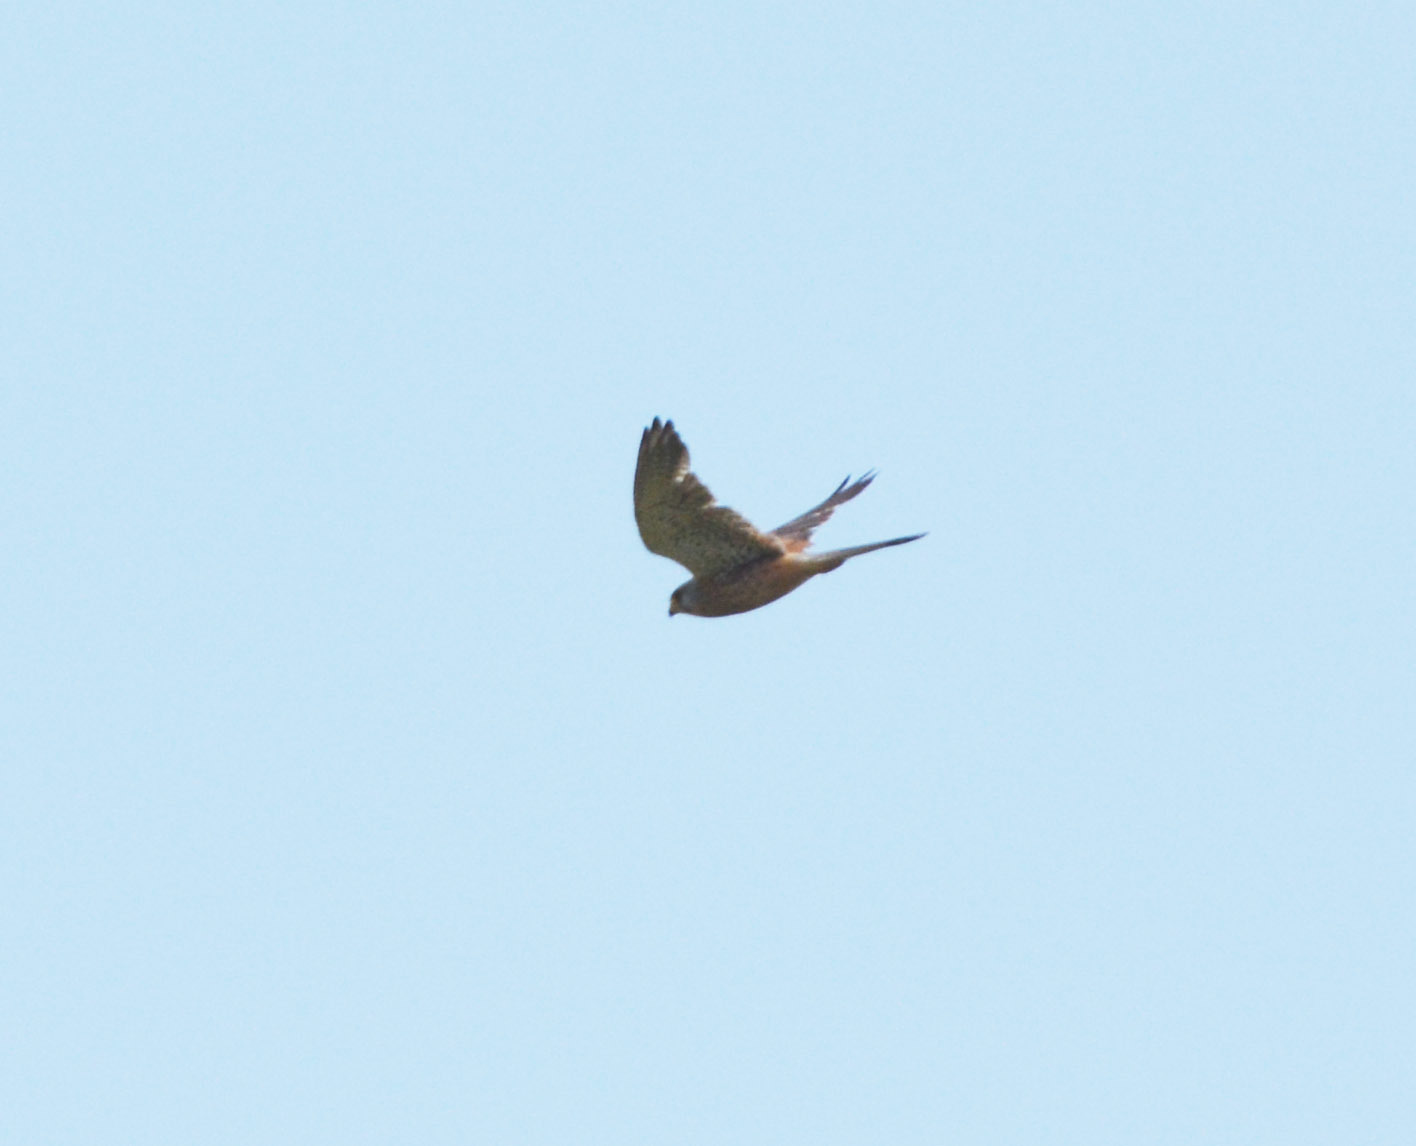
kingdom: Animalia
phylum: Chordata
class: Aves
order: Falconiformes
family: Falconidae
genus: Falco
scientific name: Falco tinnunculus
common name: Common kestrel
